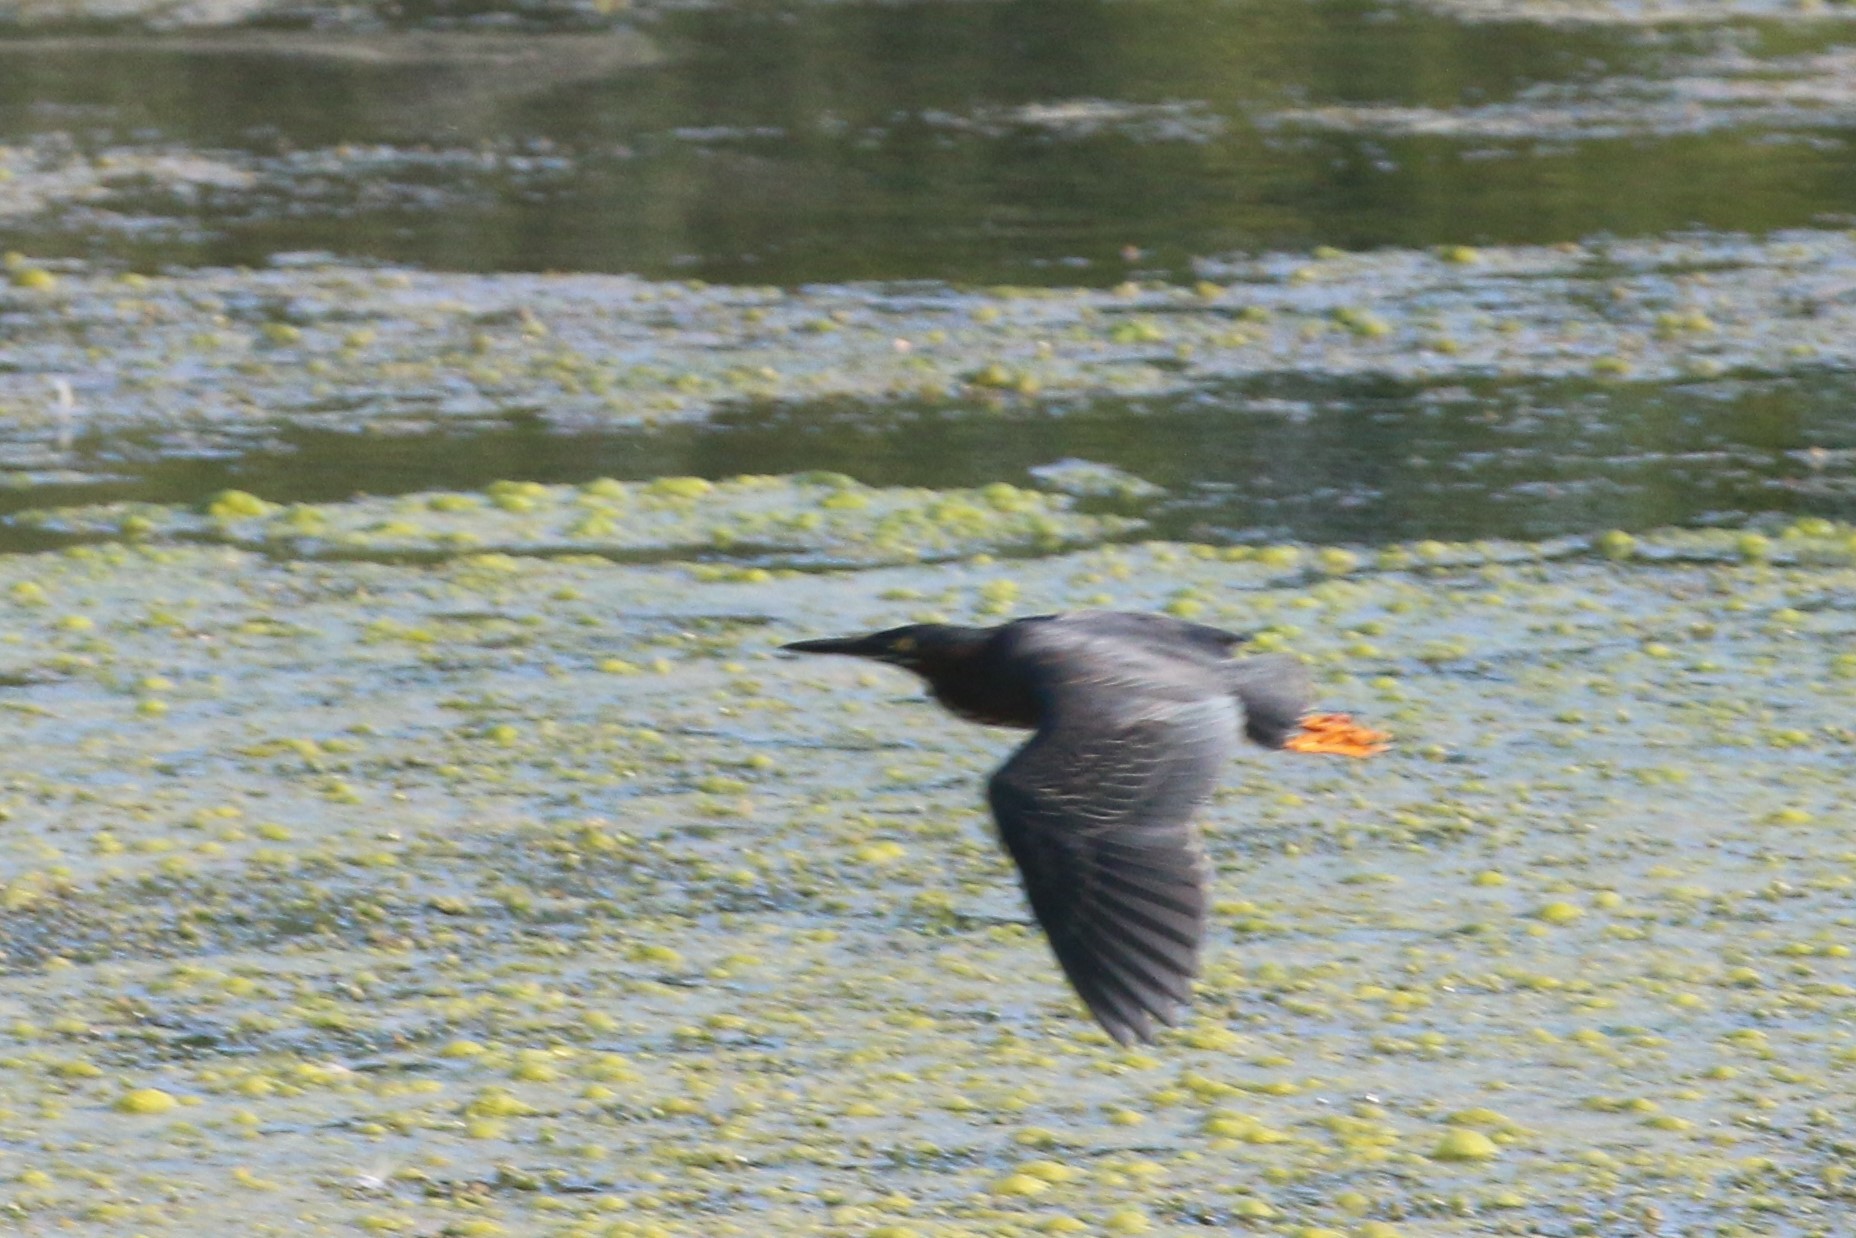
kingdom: Animalia
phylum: Chordata
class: Aves
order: Pelecaniformes
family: Ardeidae
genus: Butorides
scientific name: Butorides virescens
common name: Green heron
